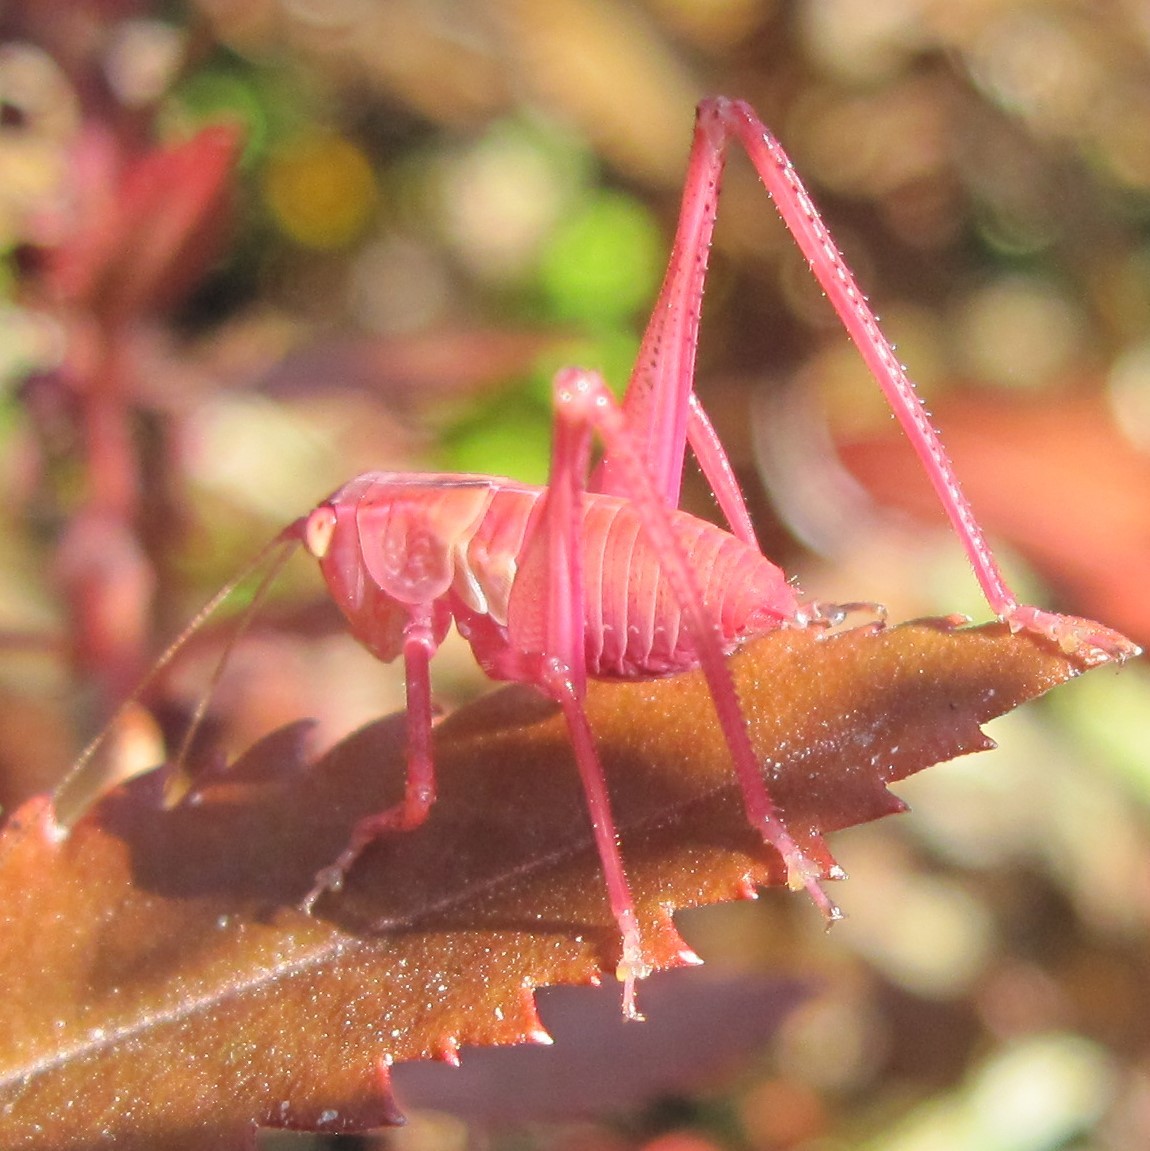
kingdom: Animalia
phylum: Arthropoda
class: Insecta
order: Orthoptera
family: Tettigoniidae
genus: Caedicia
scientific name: Caedicia simplex
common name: Common garden katydid
